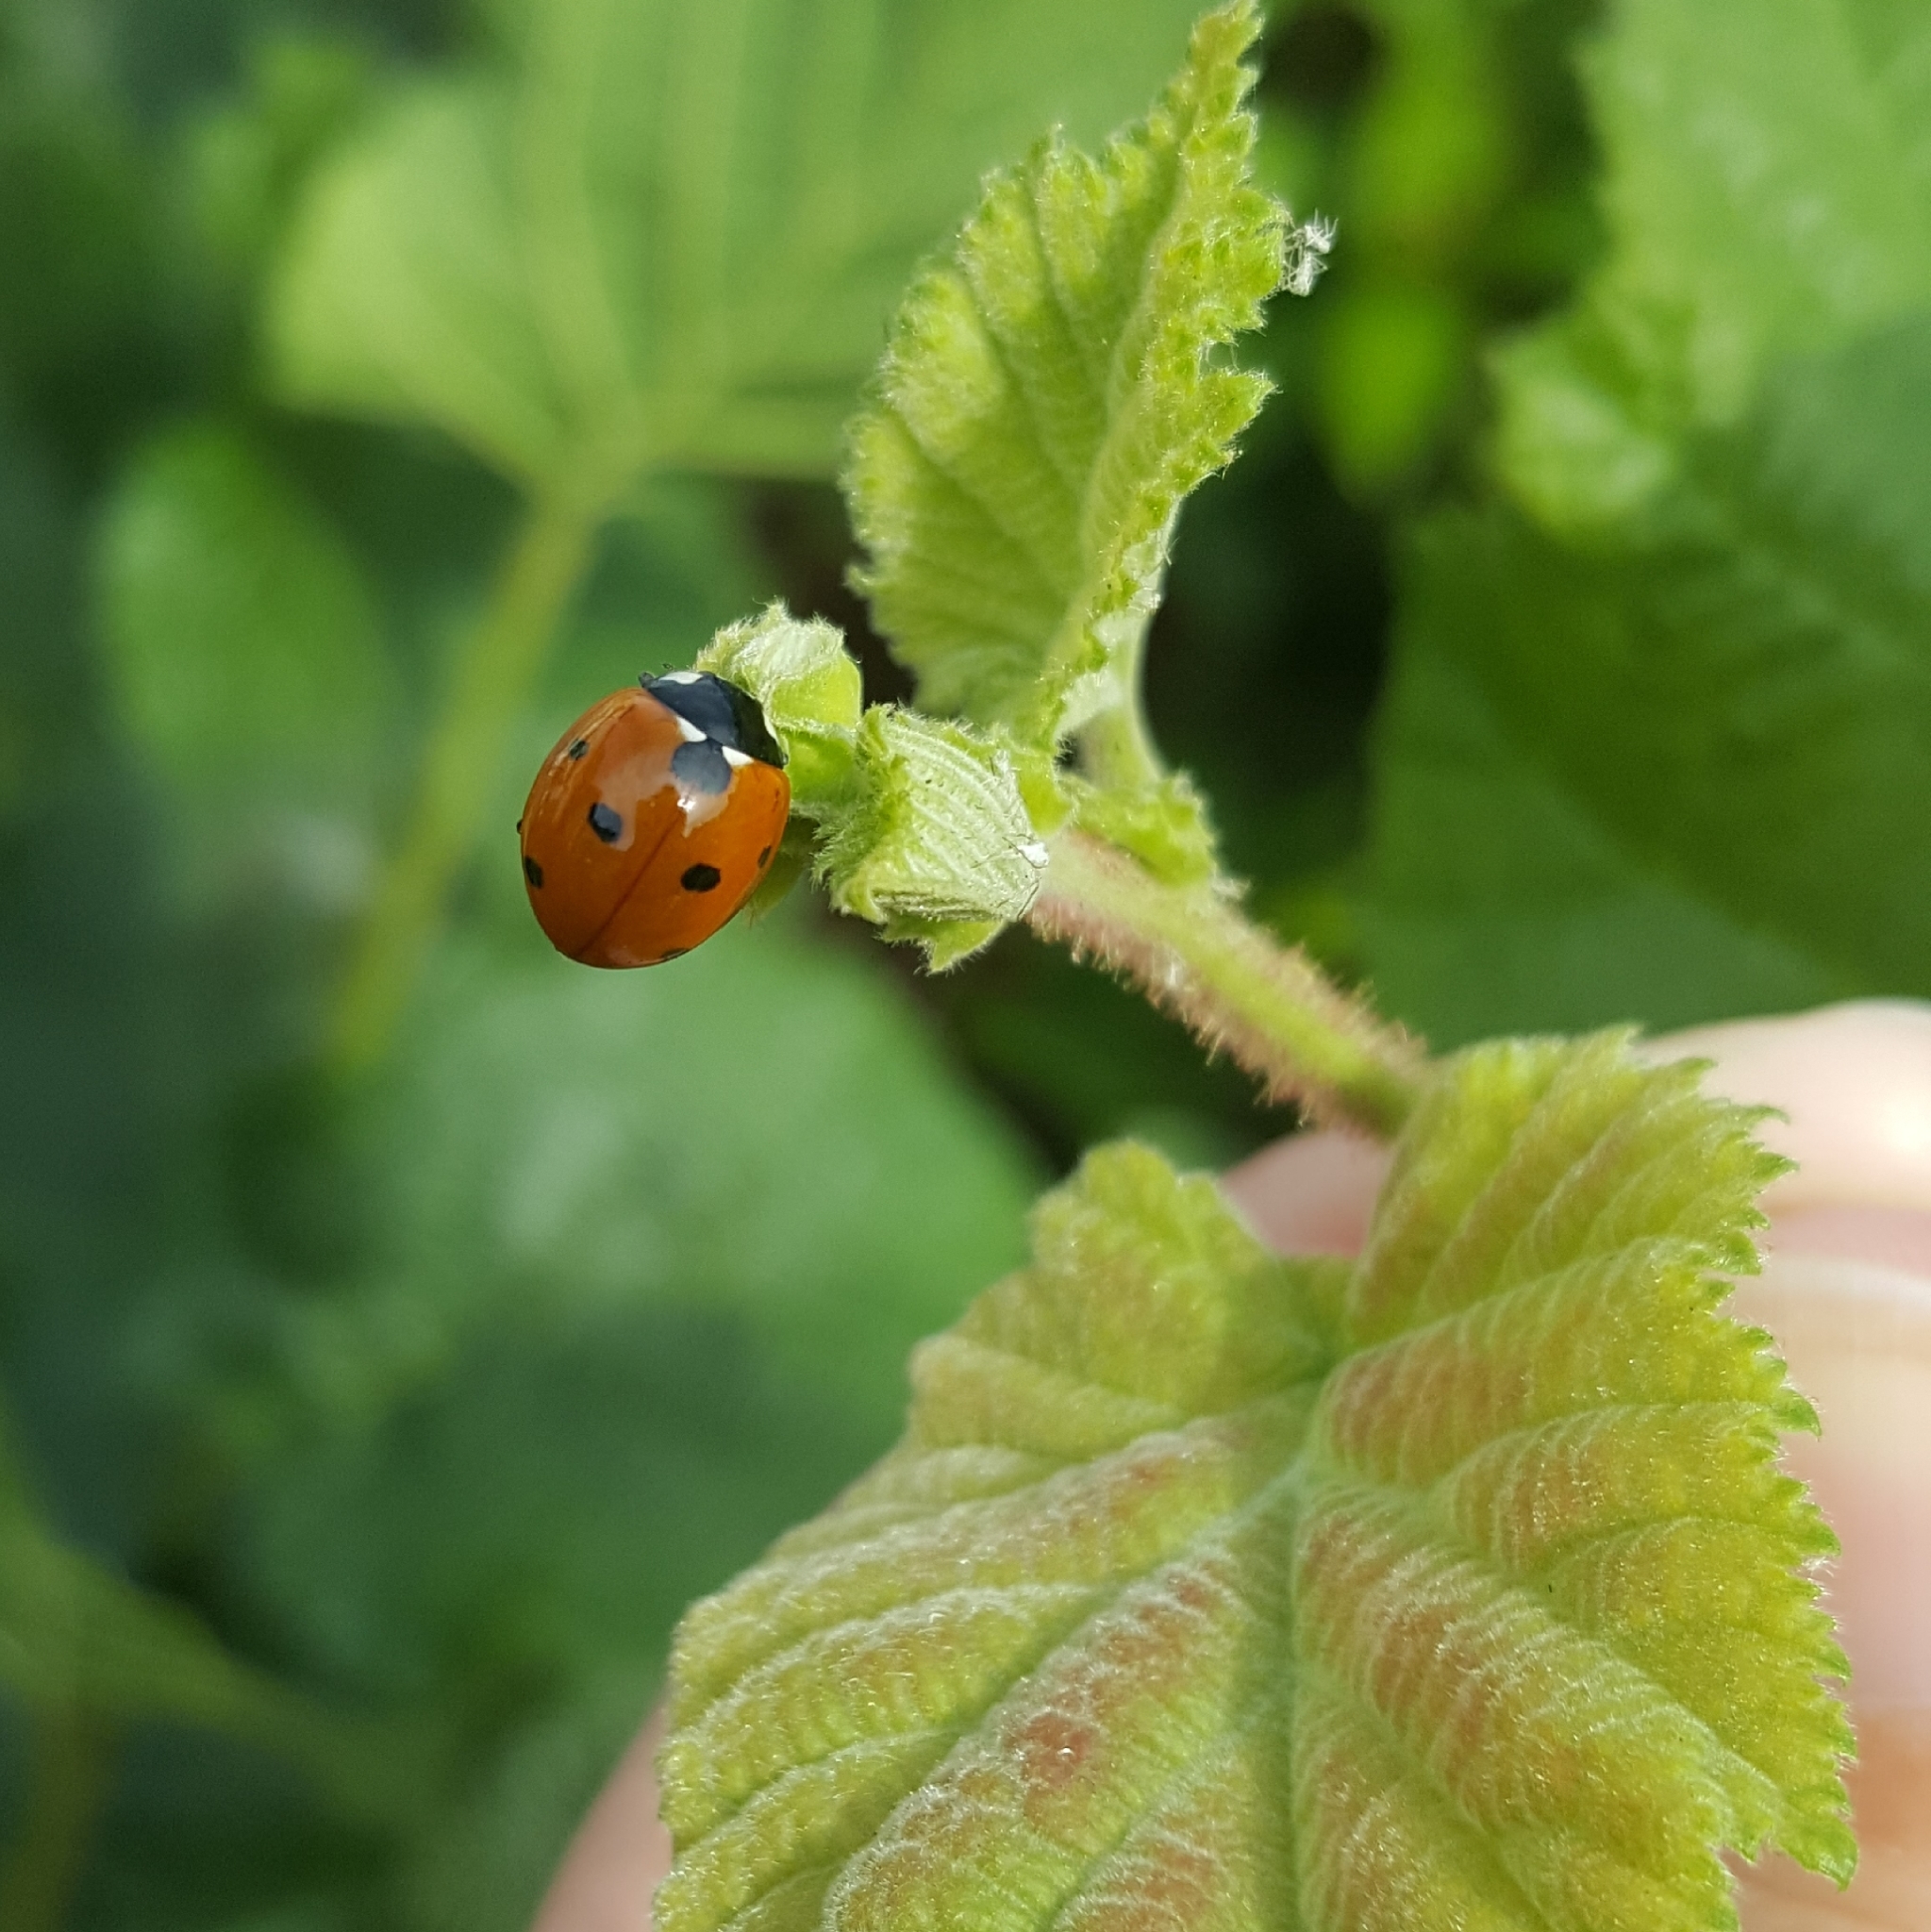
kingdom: Animalia
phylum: Arthropoda
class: Insecta
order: Coleoptera
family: Coccinellidae
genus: Coccinella
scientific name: Coccinella septempunctata
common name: Sevenspotted lady beetle
